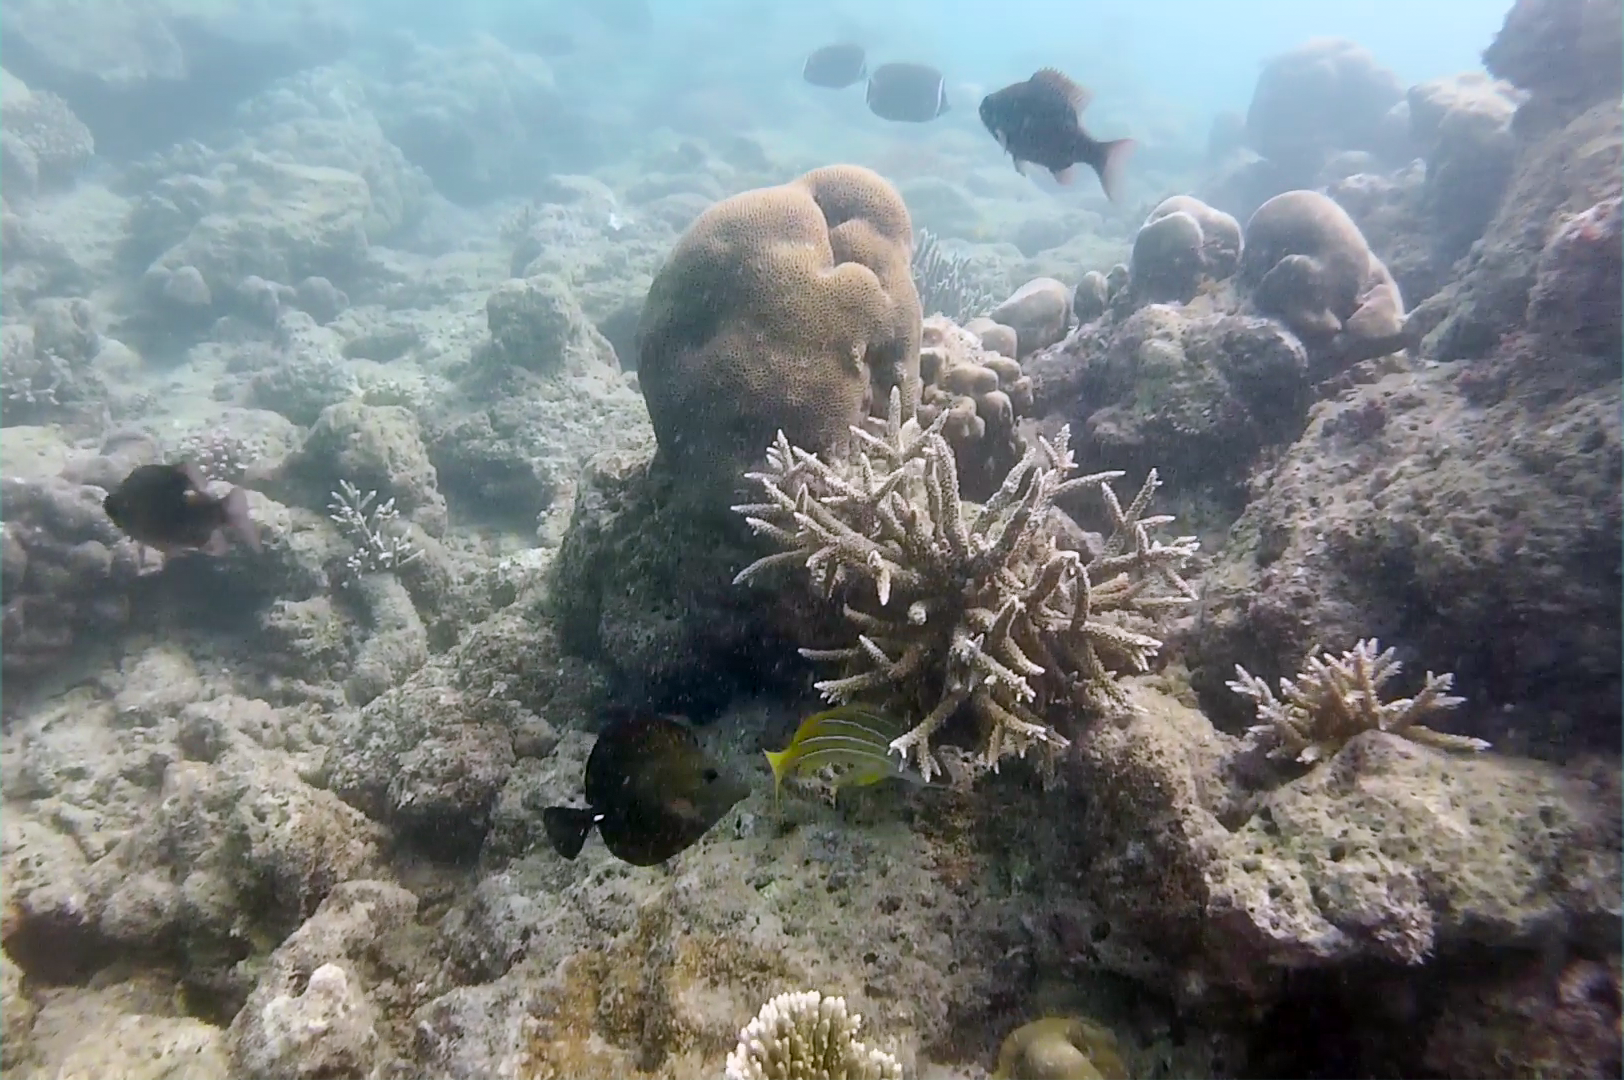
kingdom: Animalia
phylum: Chordata
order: Perciformes
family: Acanthuridae
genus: Zebrasoma
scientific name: Zebrasoma scopas
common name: Twotone tang
